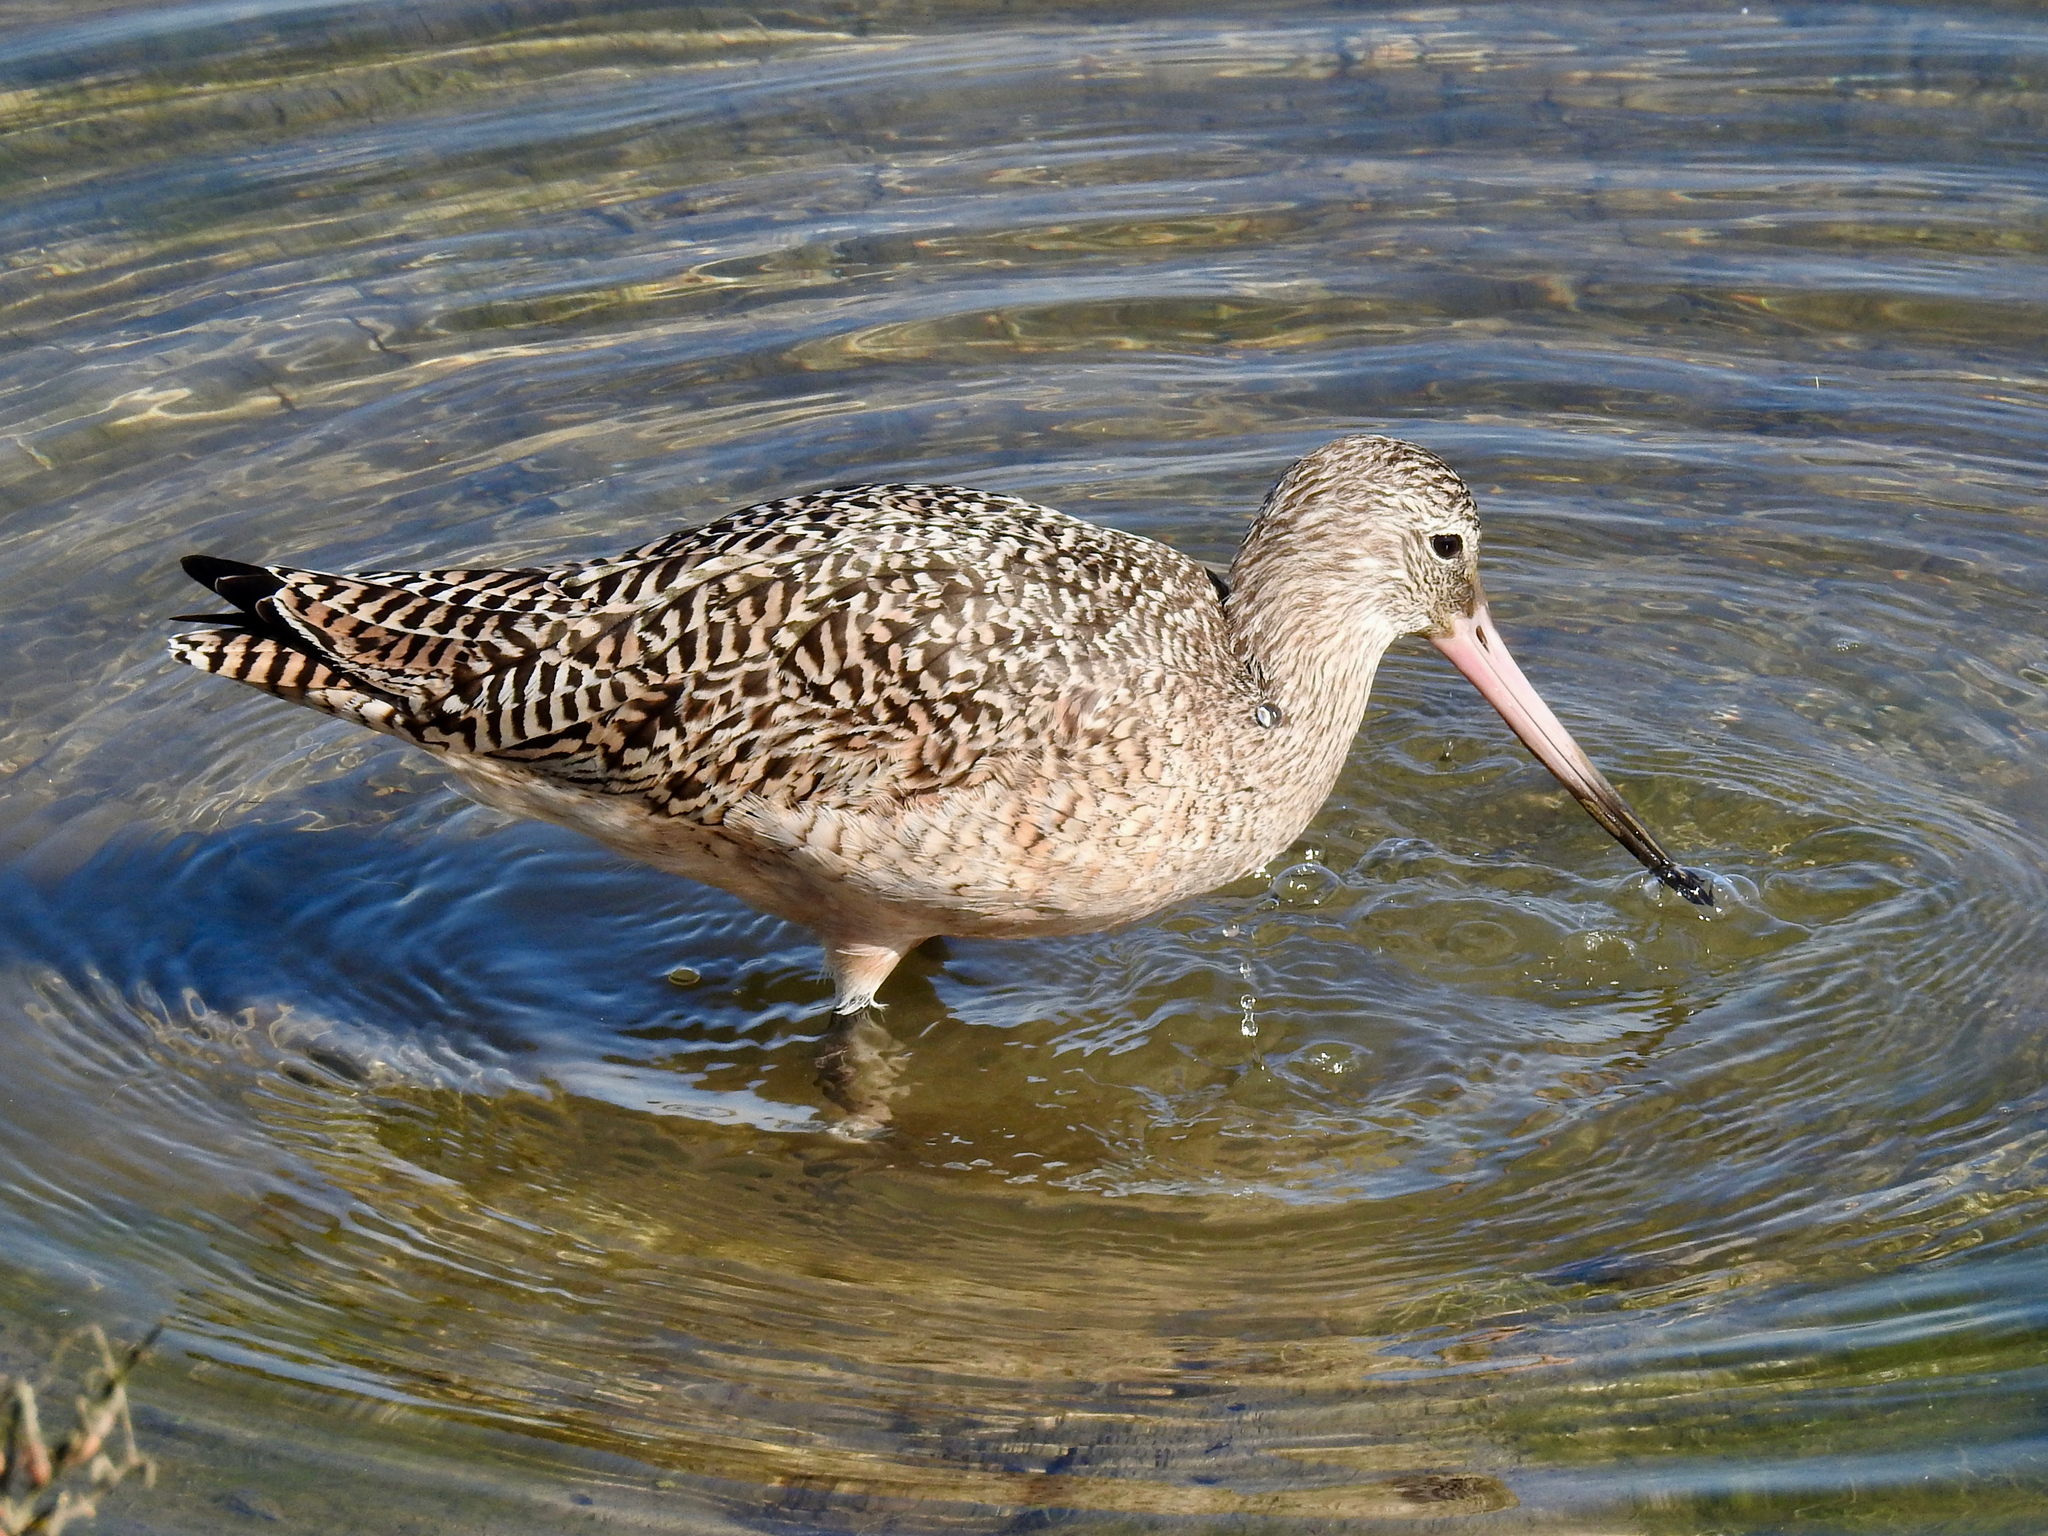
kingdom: Animalia
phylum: Chordata
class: Aves
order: Charadriiformes
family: Scolopacidae
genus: Limosa
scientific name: Limosa fedoa
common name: Marbled godwit
